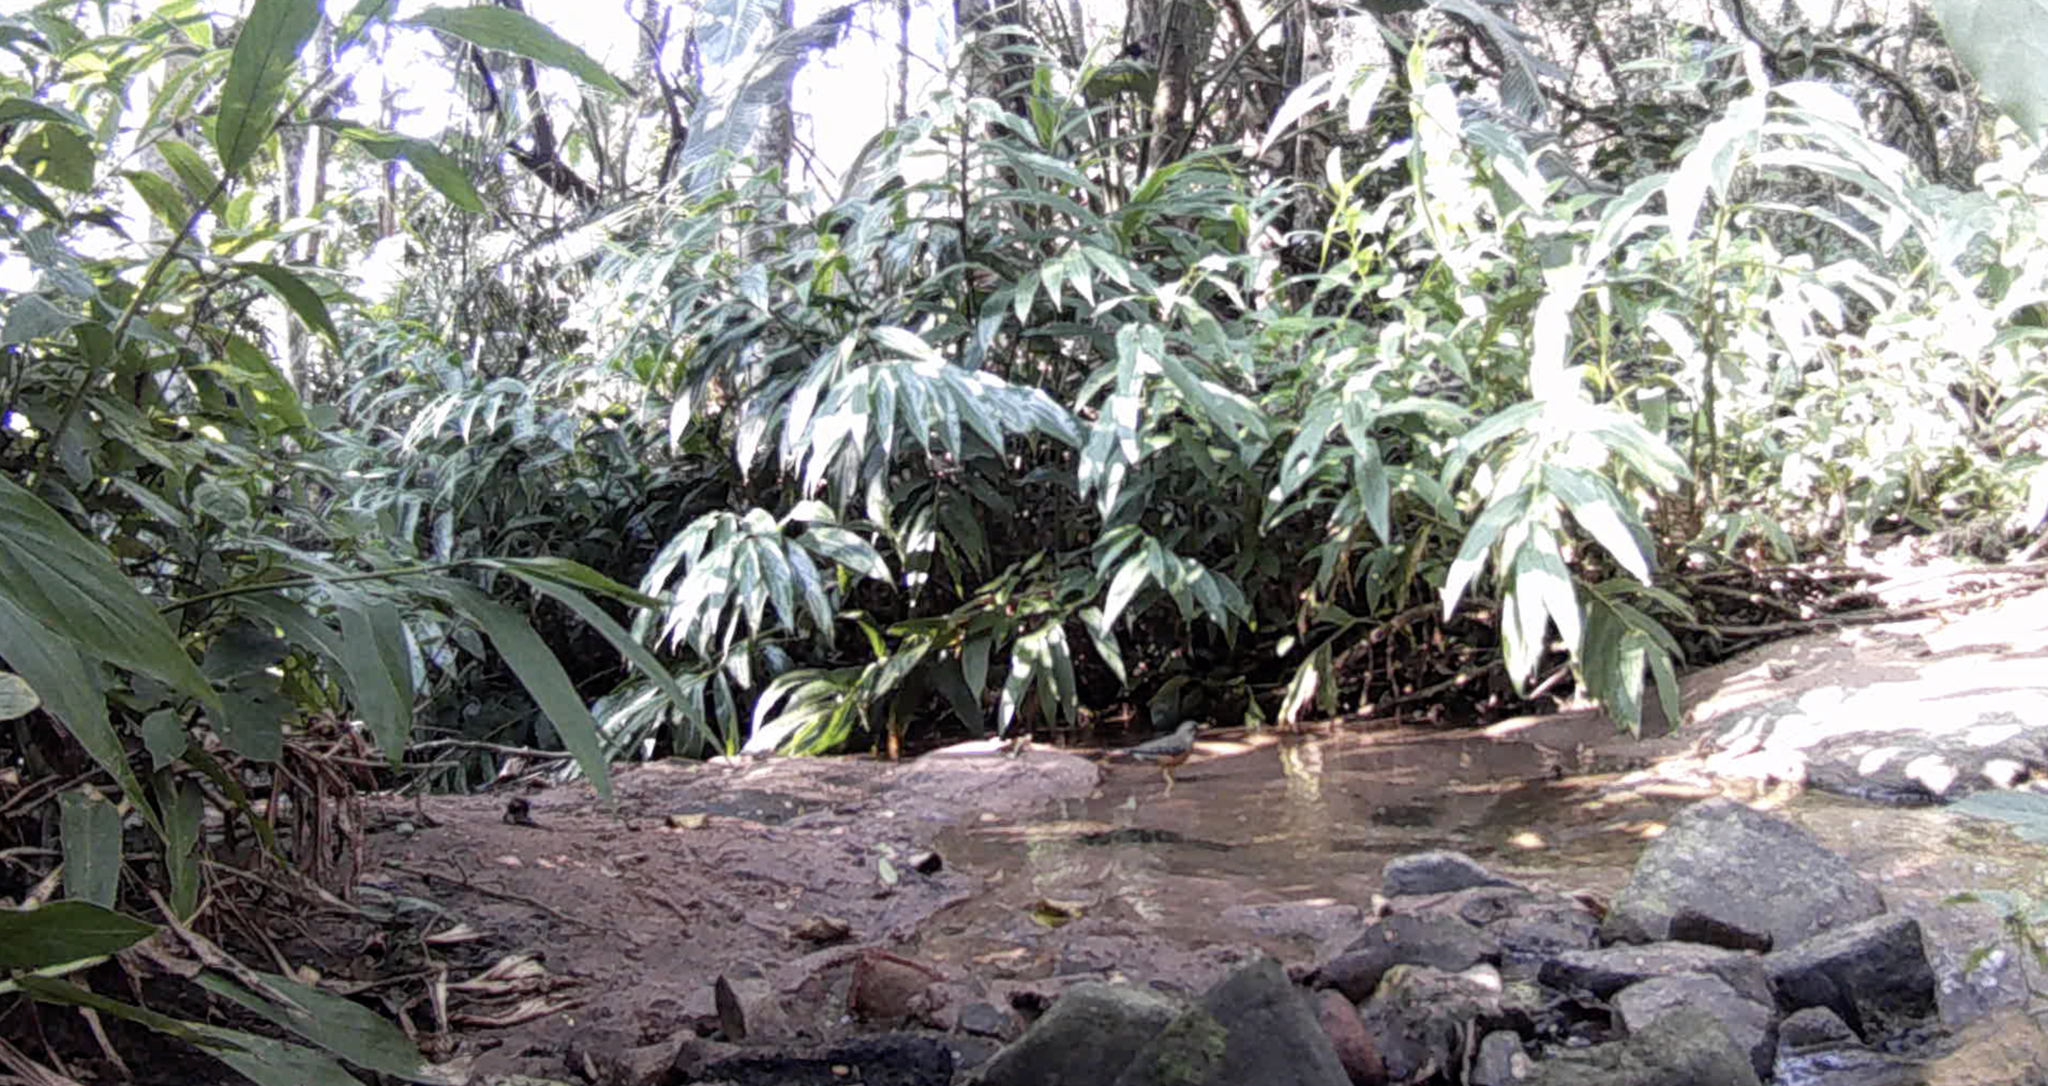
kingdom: Animalia
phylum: Chordata
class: Aves
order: Passeriformes
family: Turdidae
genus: Turdus
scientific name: Turdus olivaceus
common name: Olive thrush
